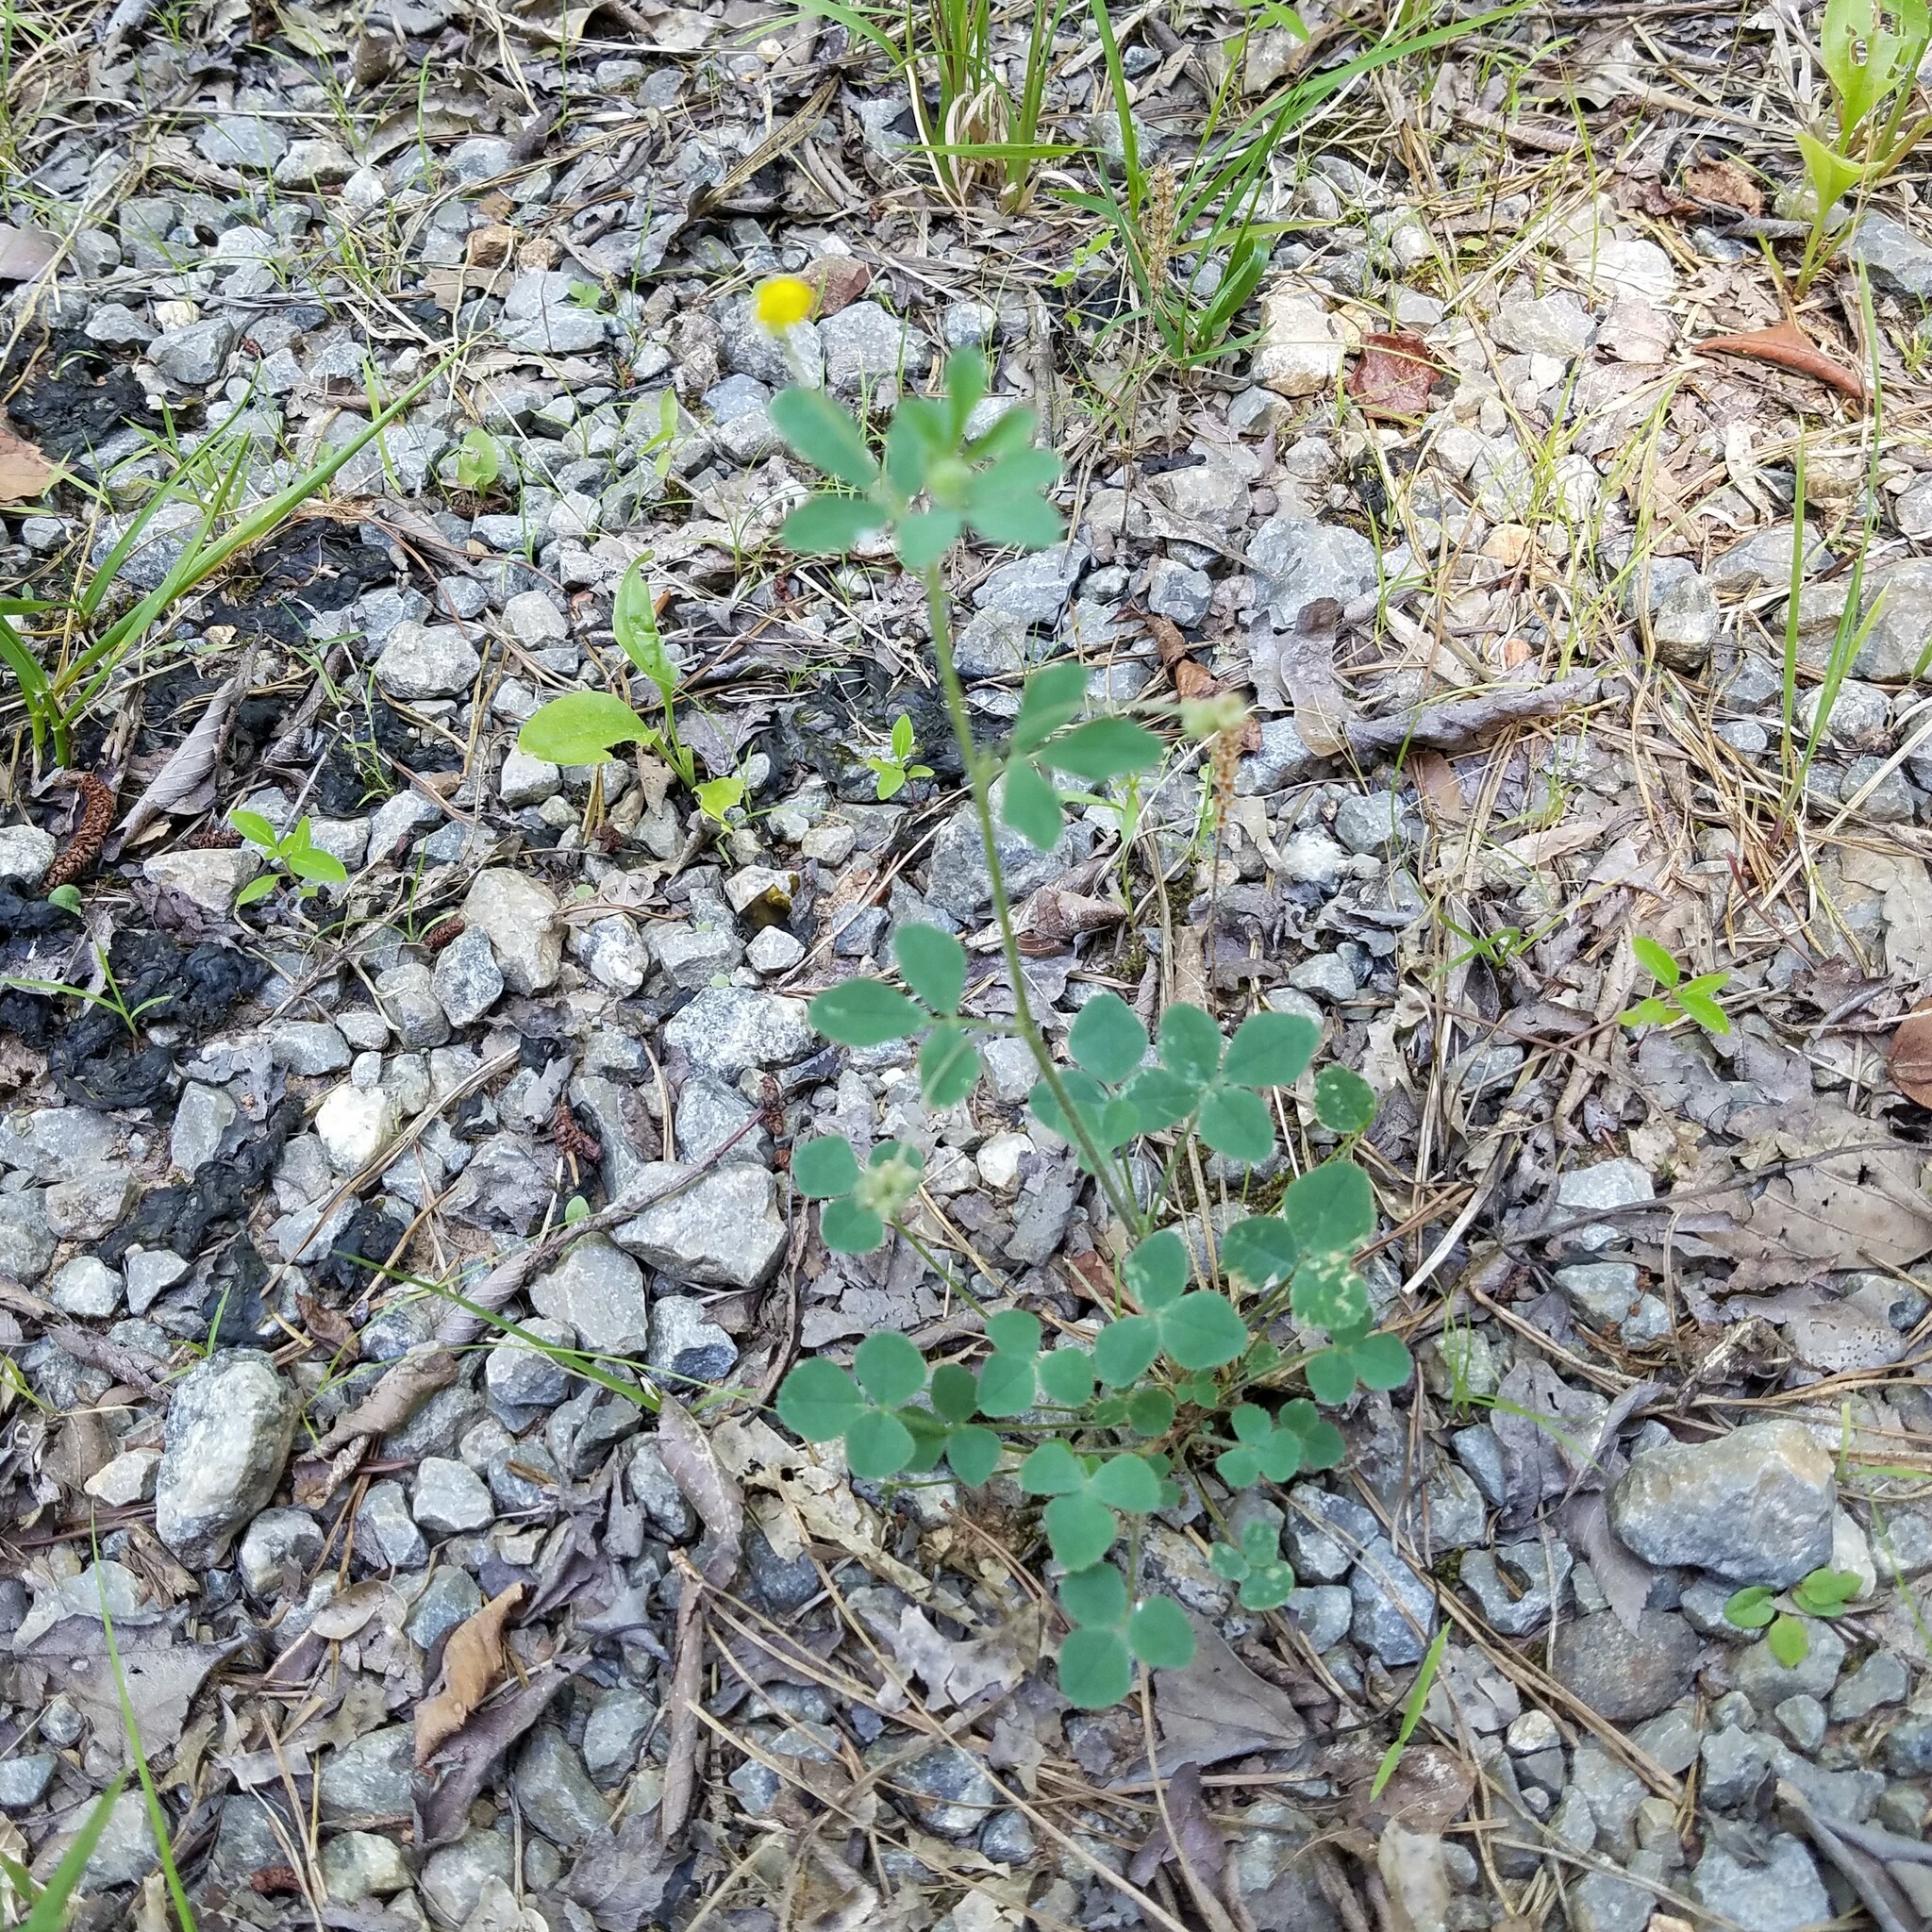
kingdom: Plantae
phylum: Tracheophyta
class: Magnoliopsida
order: Fabales
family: Fabaceae
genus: Medicago
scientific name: Medicago lupulina
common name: Black medick
